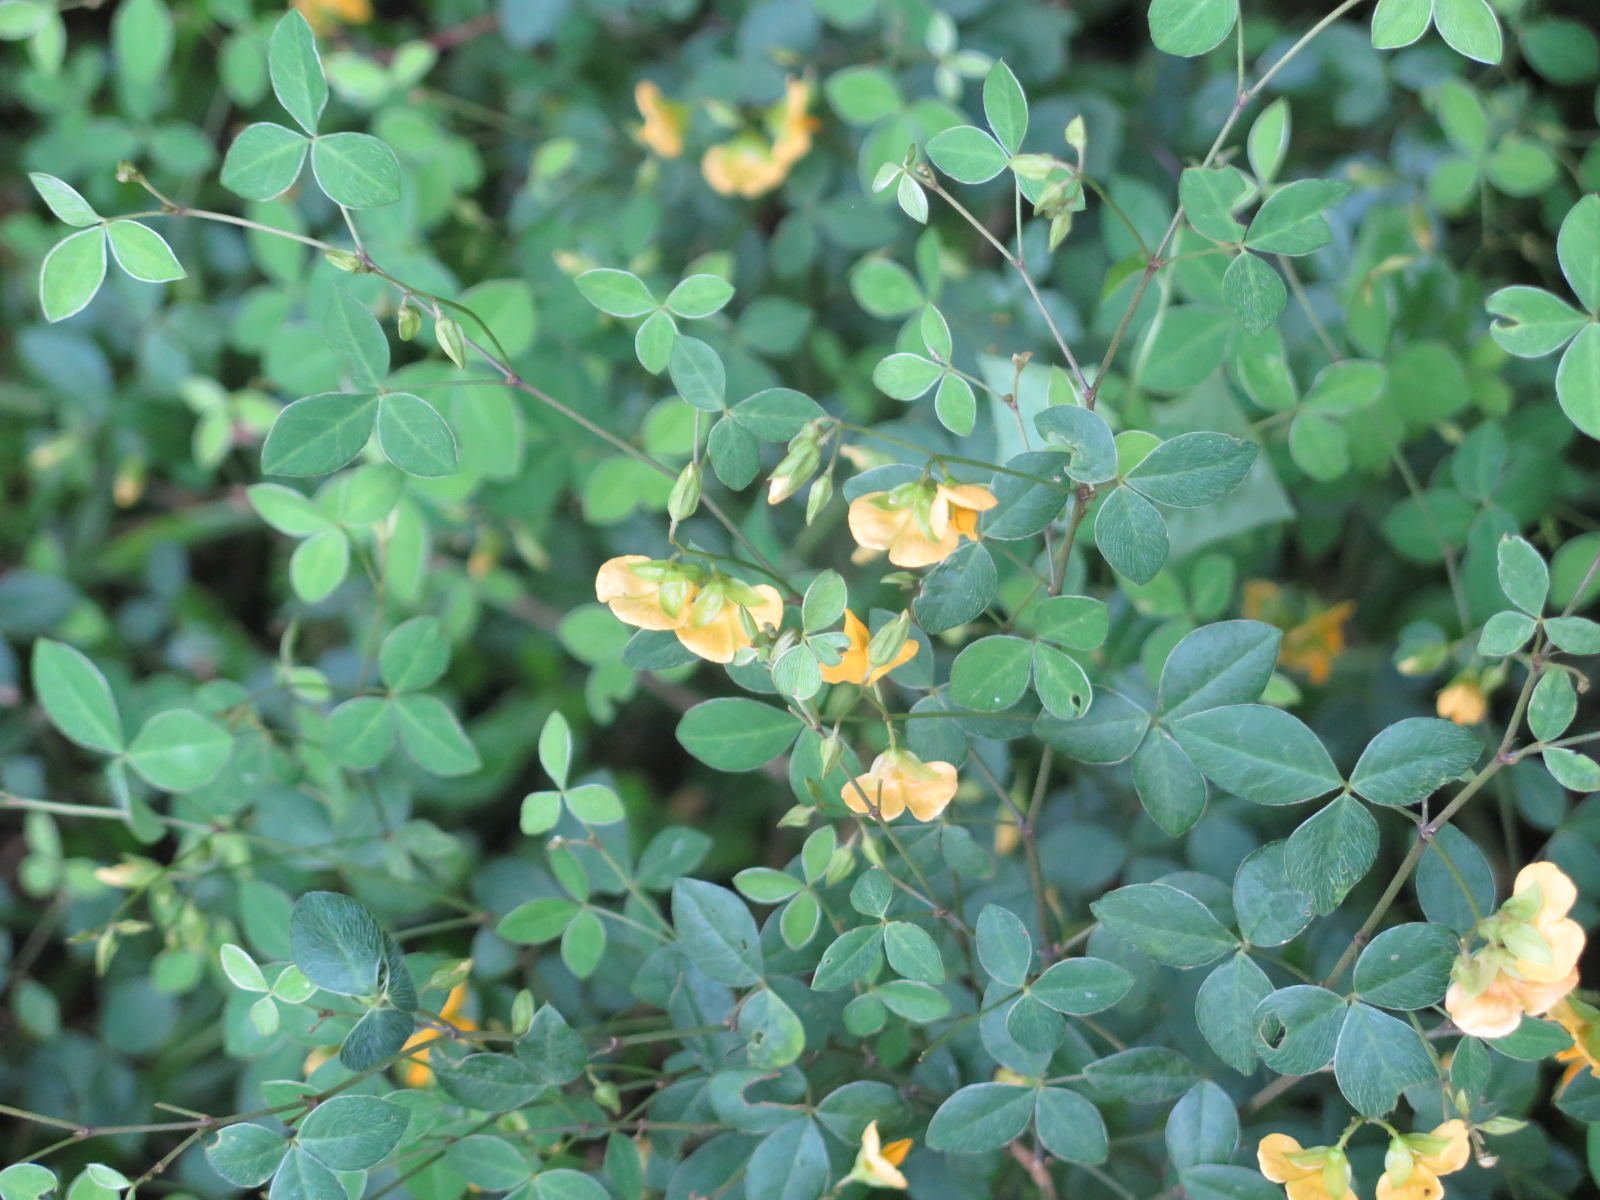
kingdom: Plantae
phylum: Tracheophyta
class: Magnoliopsida
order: Fabales
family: Fabaceae
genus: Argyrolobium
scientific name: Argyrolobium tomentosum
